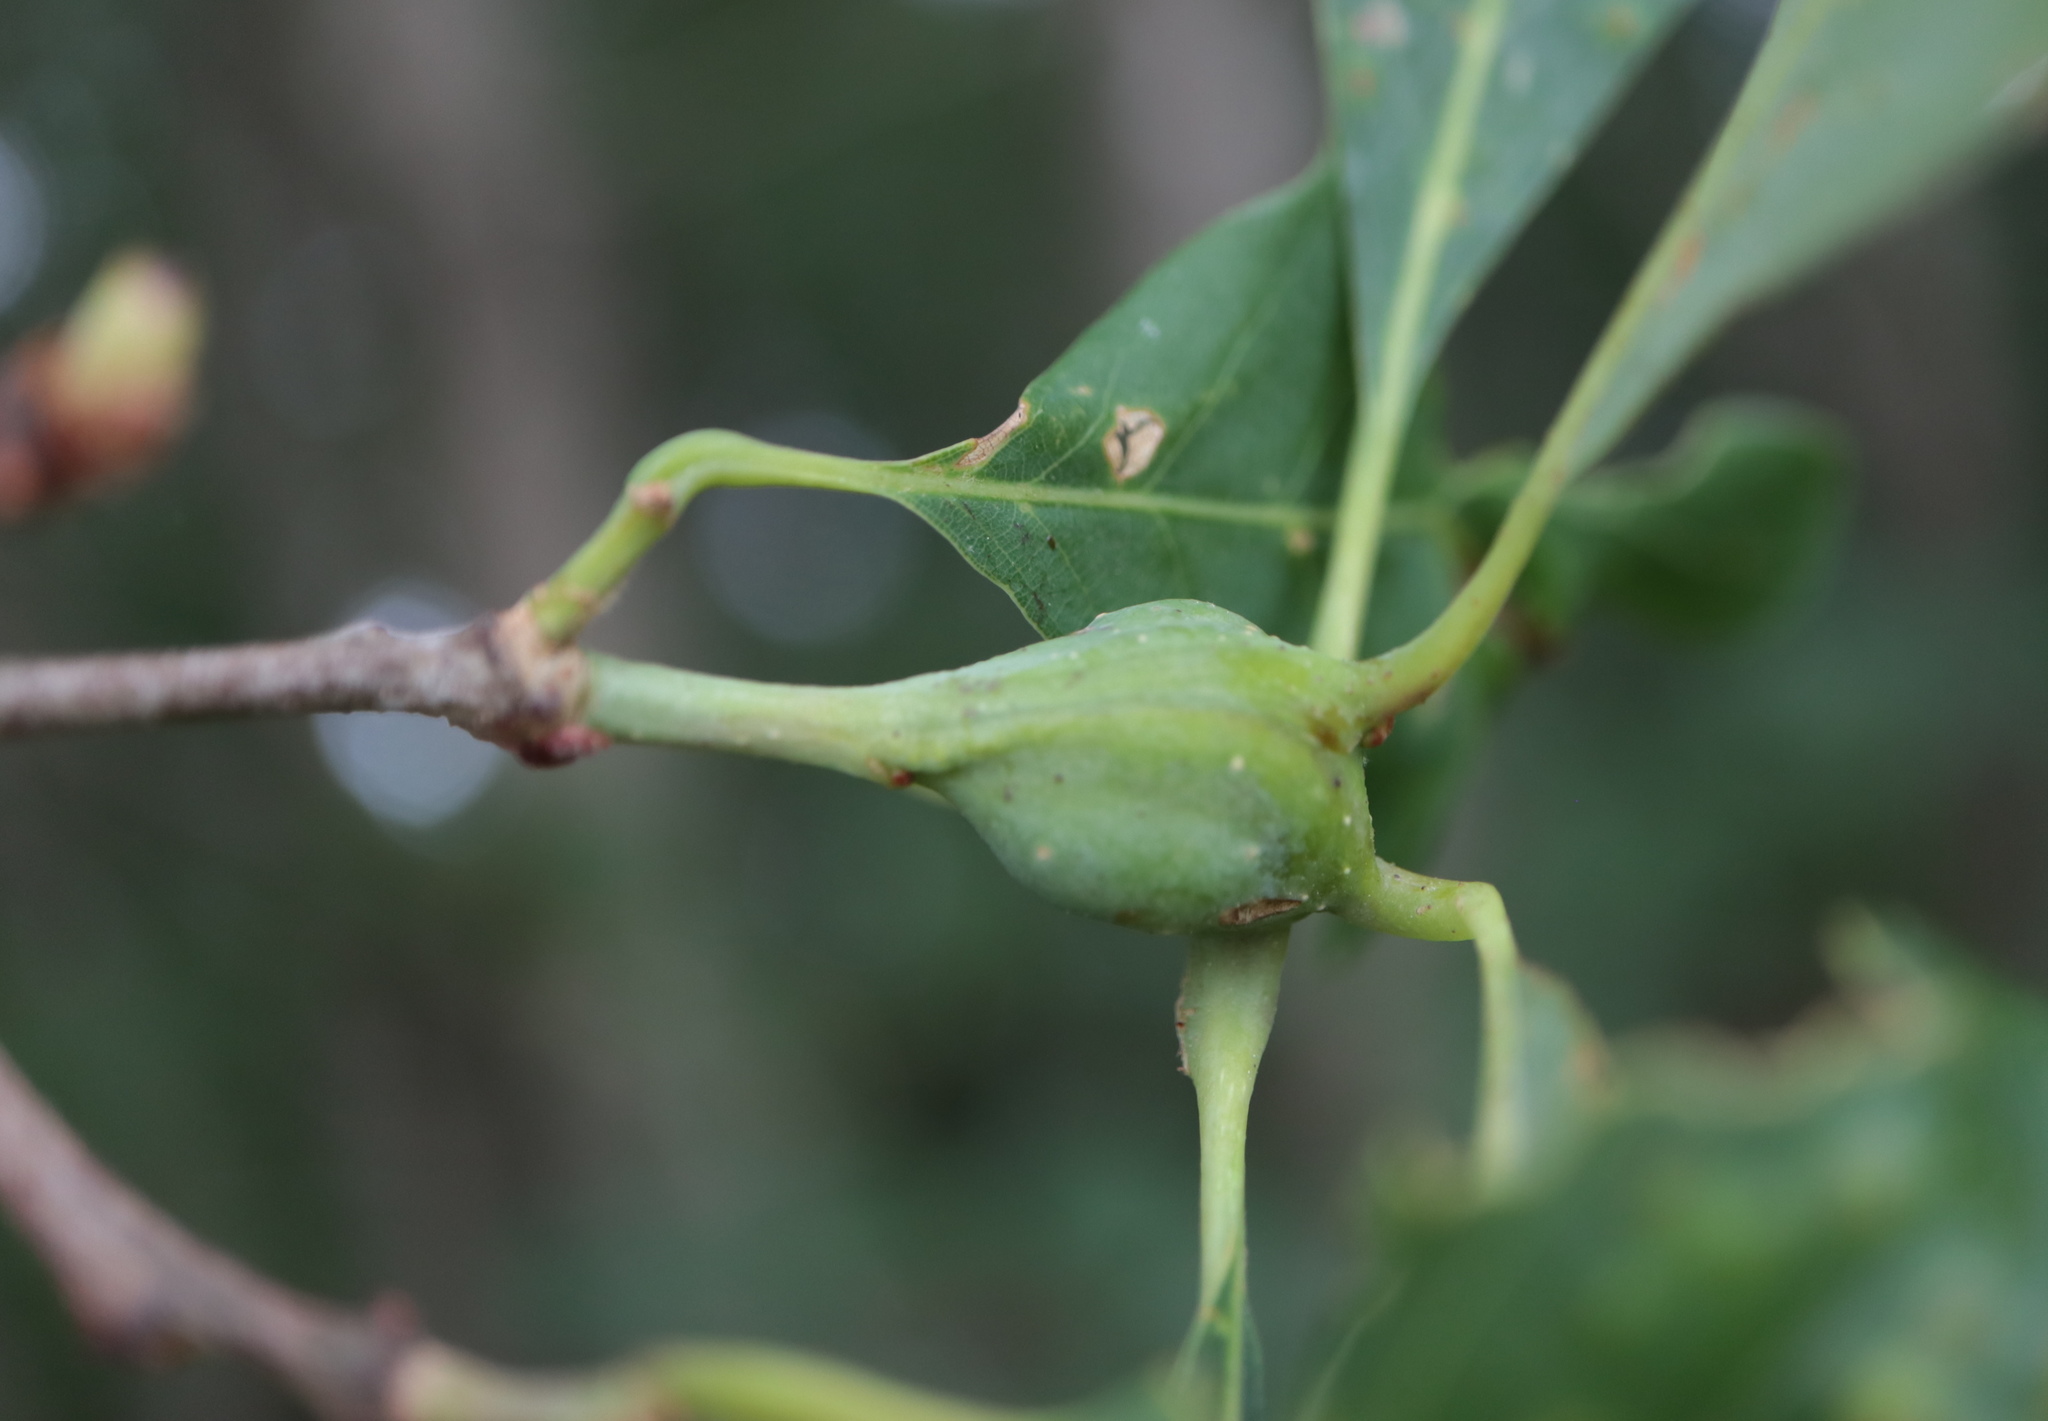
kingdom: Animalia
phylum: Arthropoda
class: Insecta
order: Hymenoptera
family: Cynipidae
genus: Callirhytis
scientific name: Callirhytis clavula
